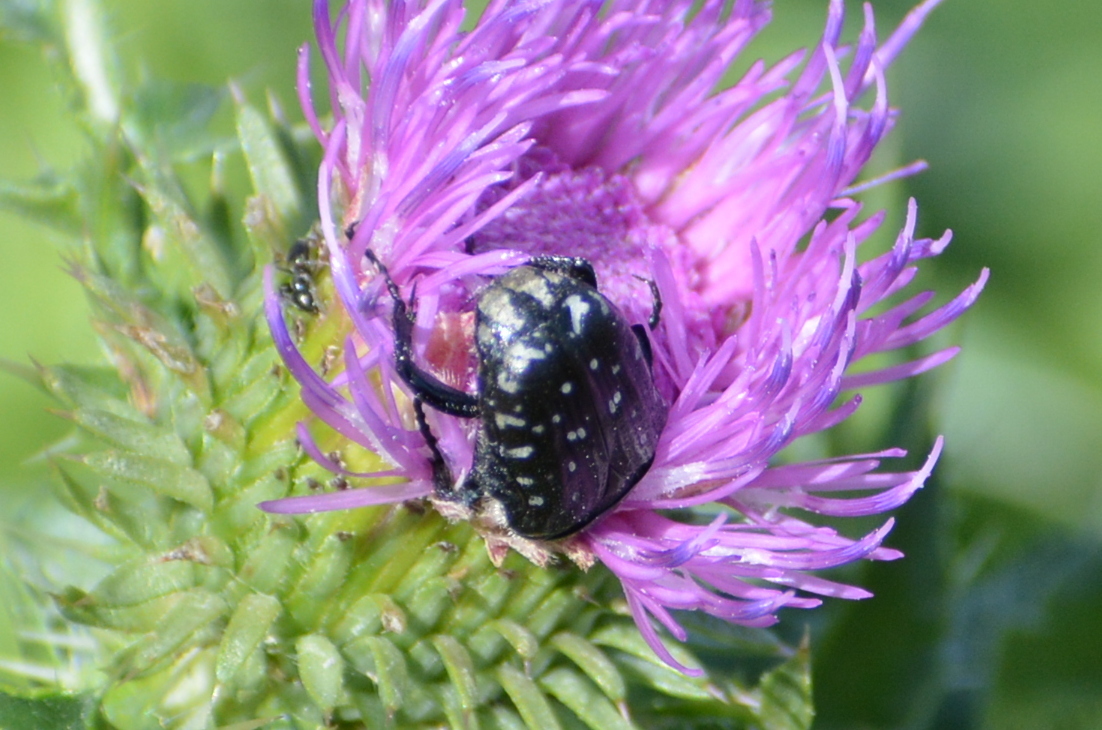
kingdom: Animalia
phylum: Arthropoda
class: Insecta
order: Coleoptera
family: Scarabaeidae
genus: Oxythyrea
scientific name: Oxythyrea funesta
